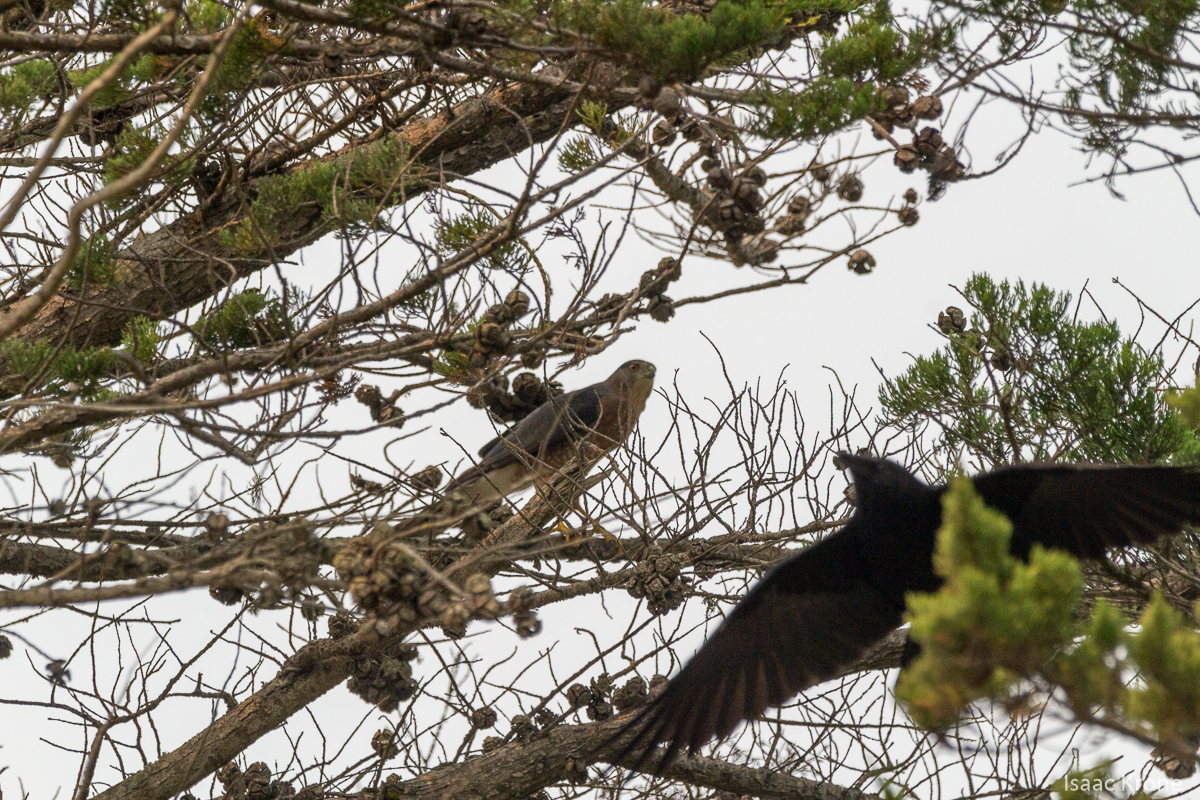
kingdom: Animalia
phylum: Chordata
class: Aves
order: Accipitriformes
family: Accipitridae
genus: Accipiter
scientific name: Accipiter cooperii
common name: Cooper's hawk
